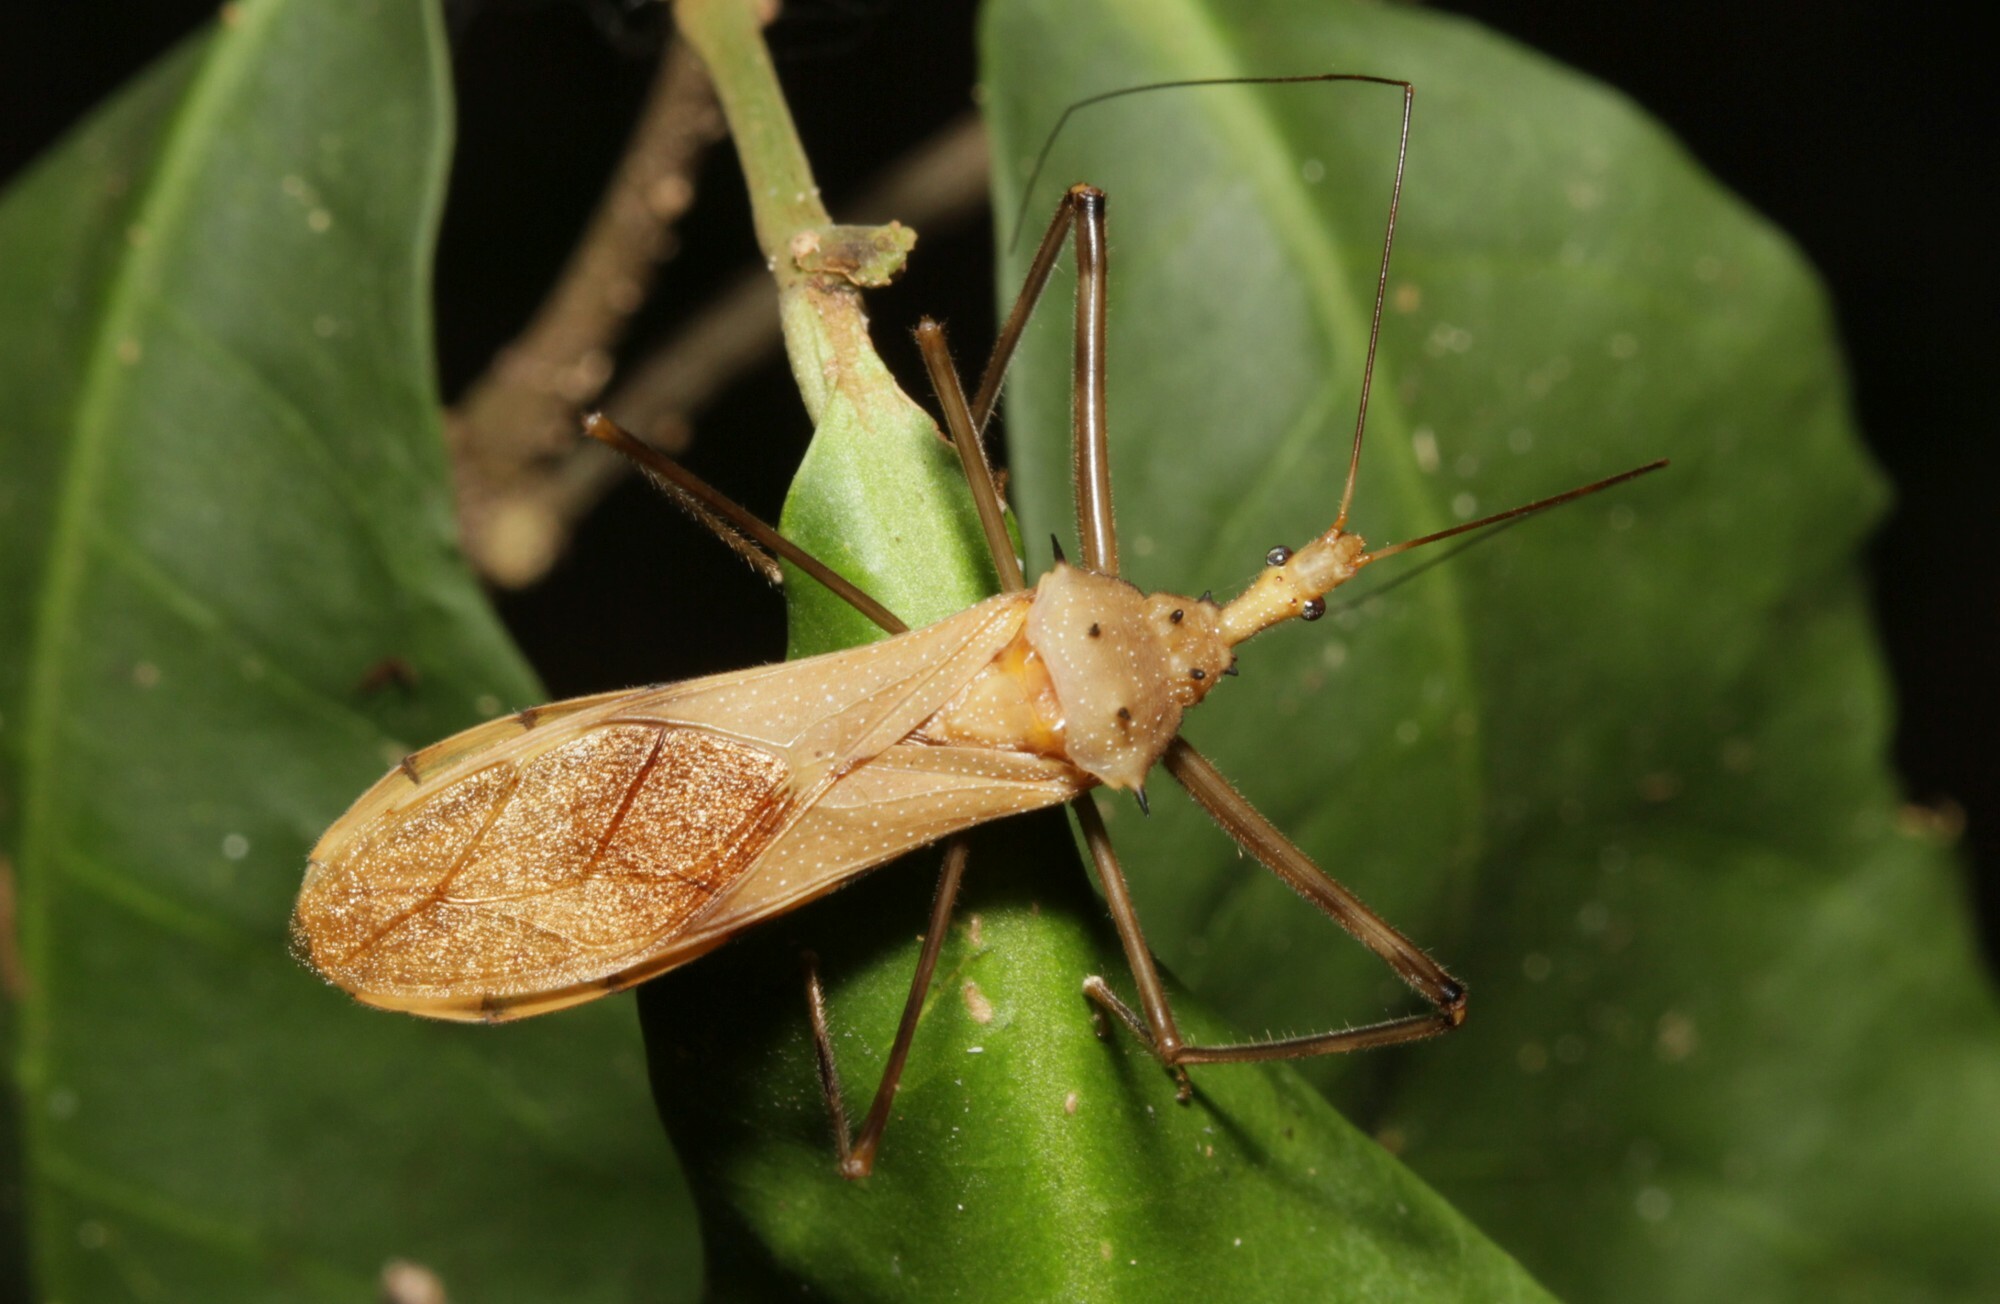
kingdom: Animalia
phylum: Arthropoda
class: Insecta
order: Hemiptera
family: Reduviidae
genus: Heza
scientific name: Heza sphinx
